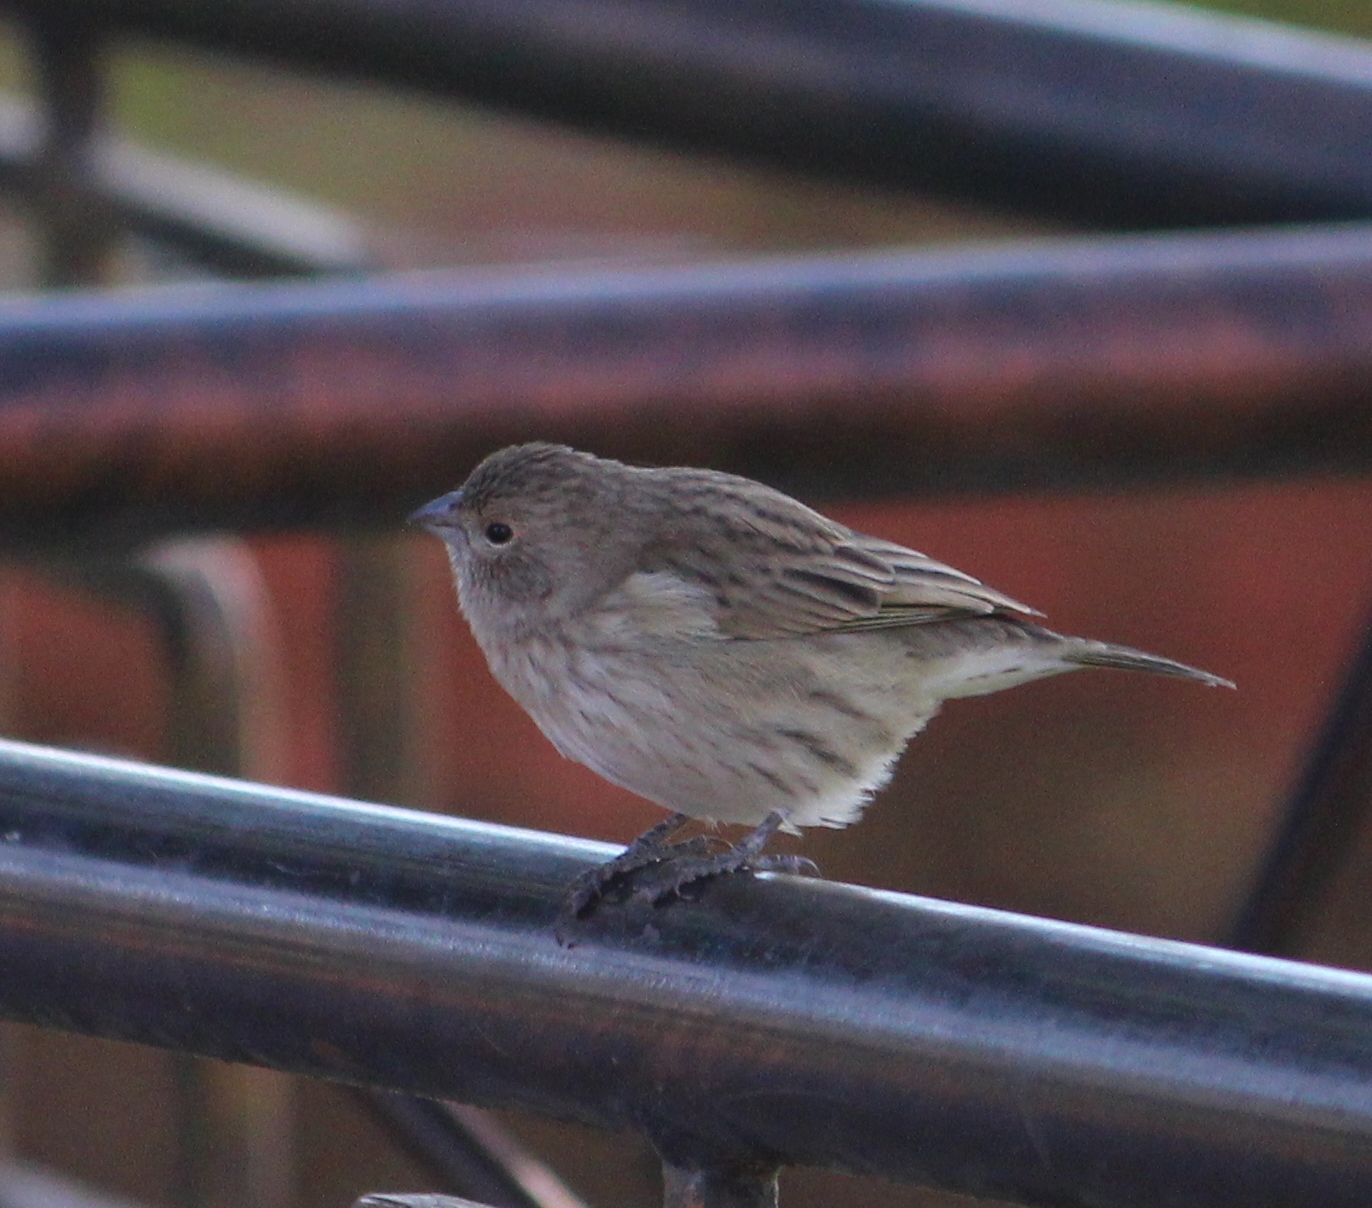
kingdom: Animalia
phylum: Chordata
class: Aves
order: Passeriformes
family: Thraupidae
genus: Sicalis
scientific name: Sicalis flaveola
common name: Saffron finch
